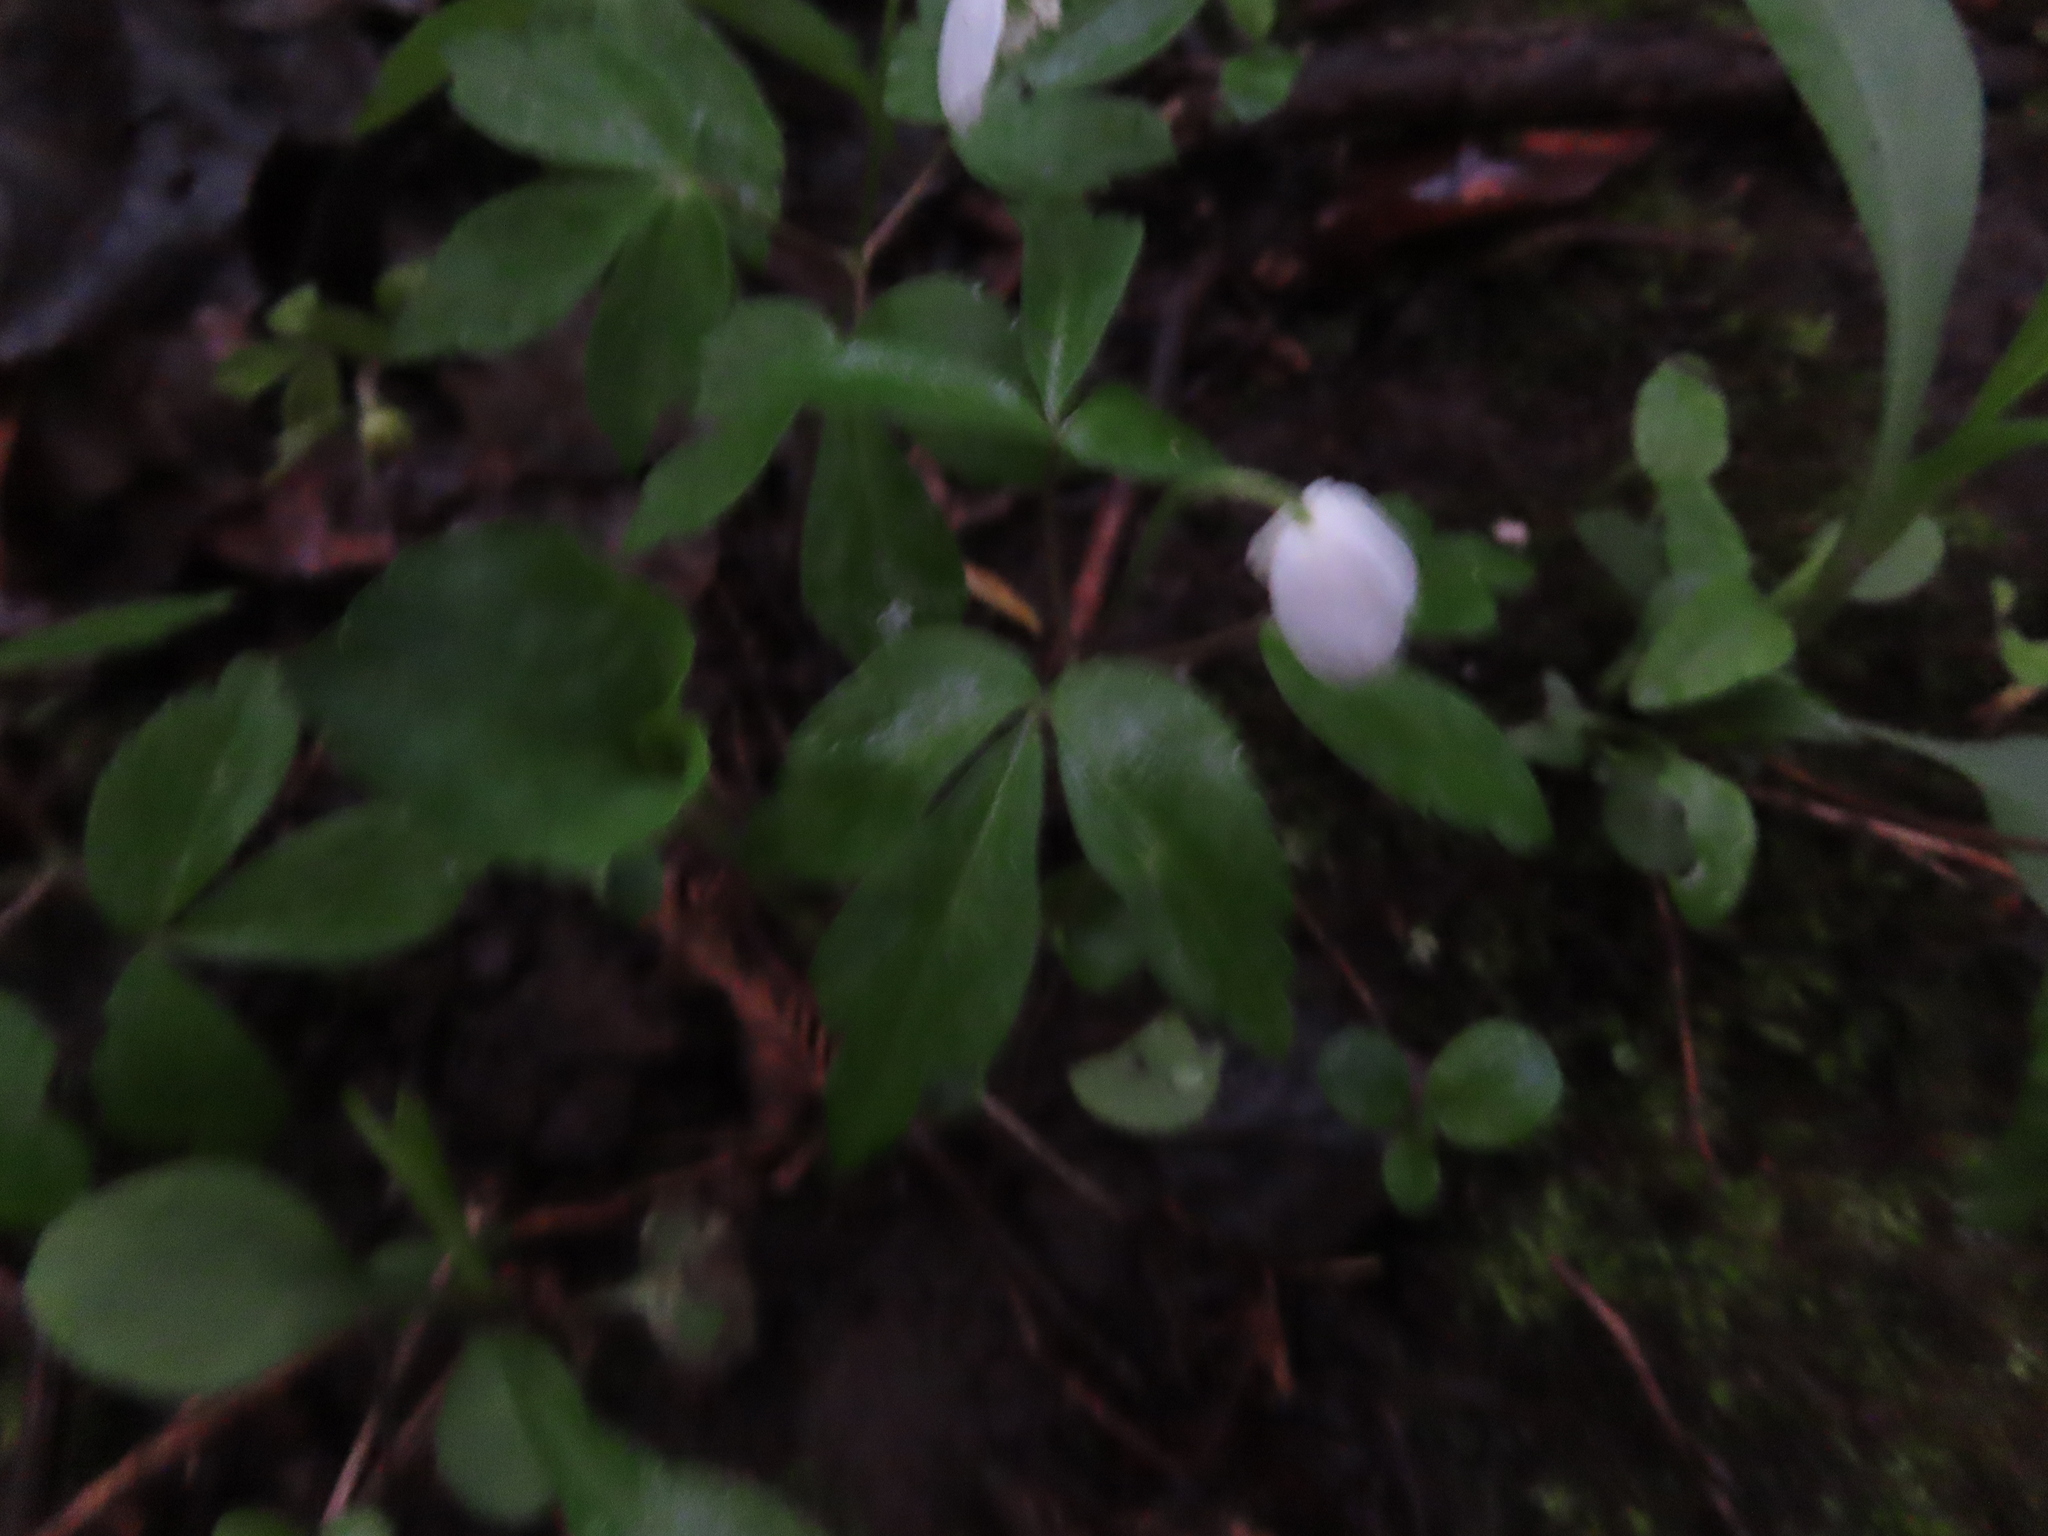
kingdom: Plantae
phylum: Tracheophyta
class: Magnoliopsida
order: Ranunculales
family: Ranunculaceae
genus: Anemone
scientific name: Anemone quinquefolia
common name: Wood anemone
